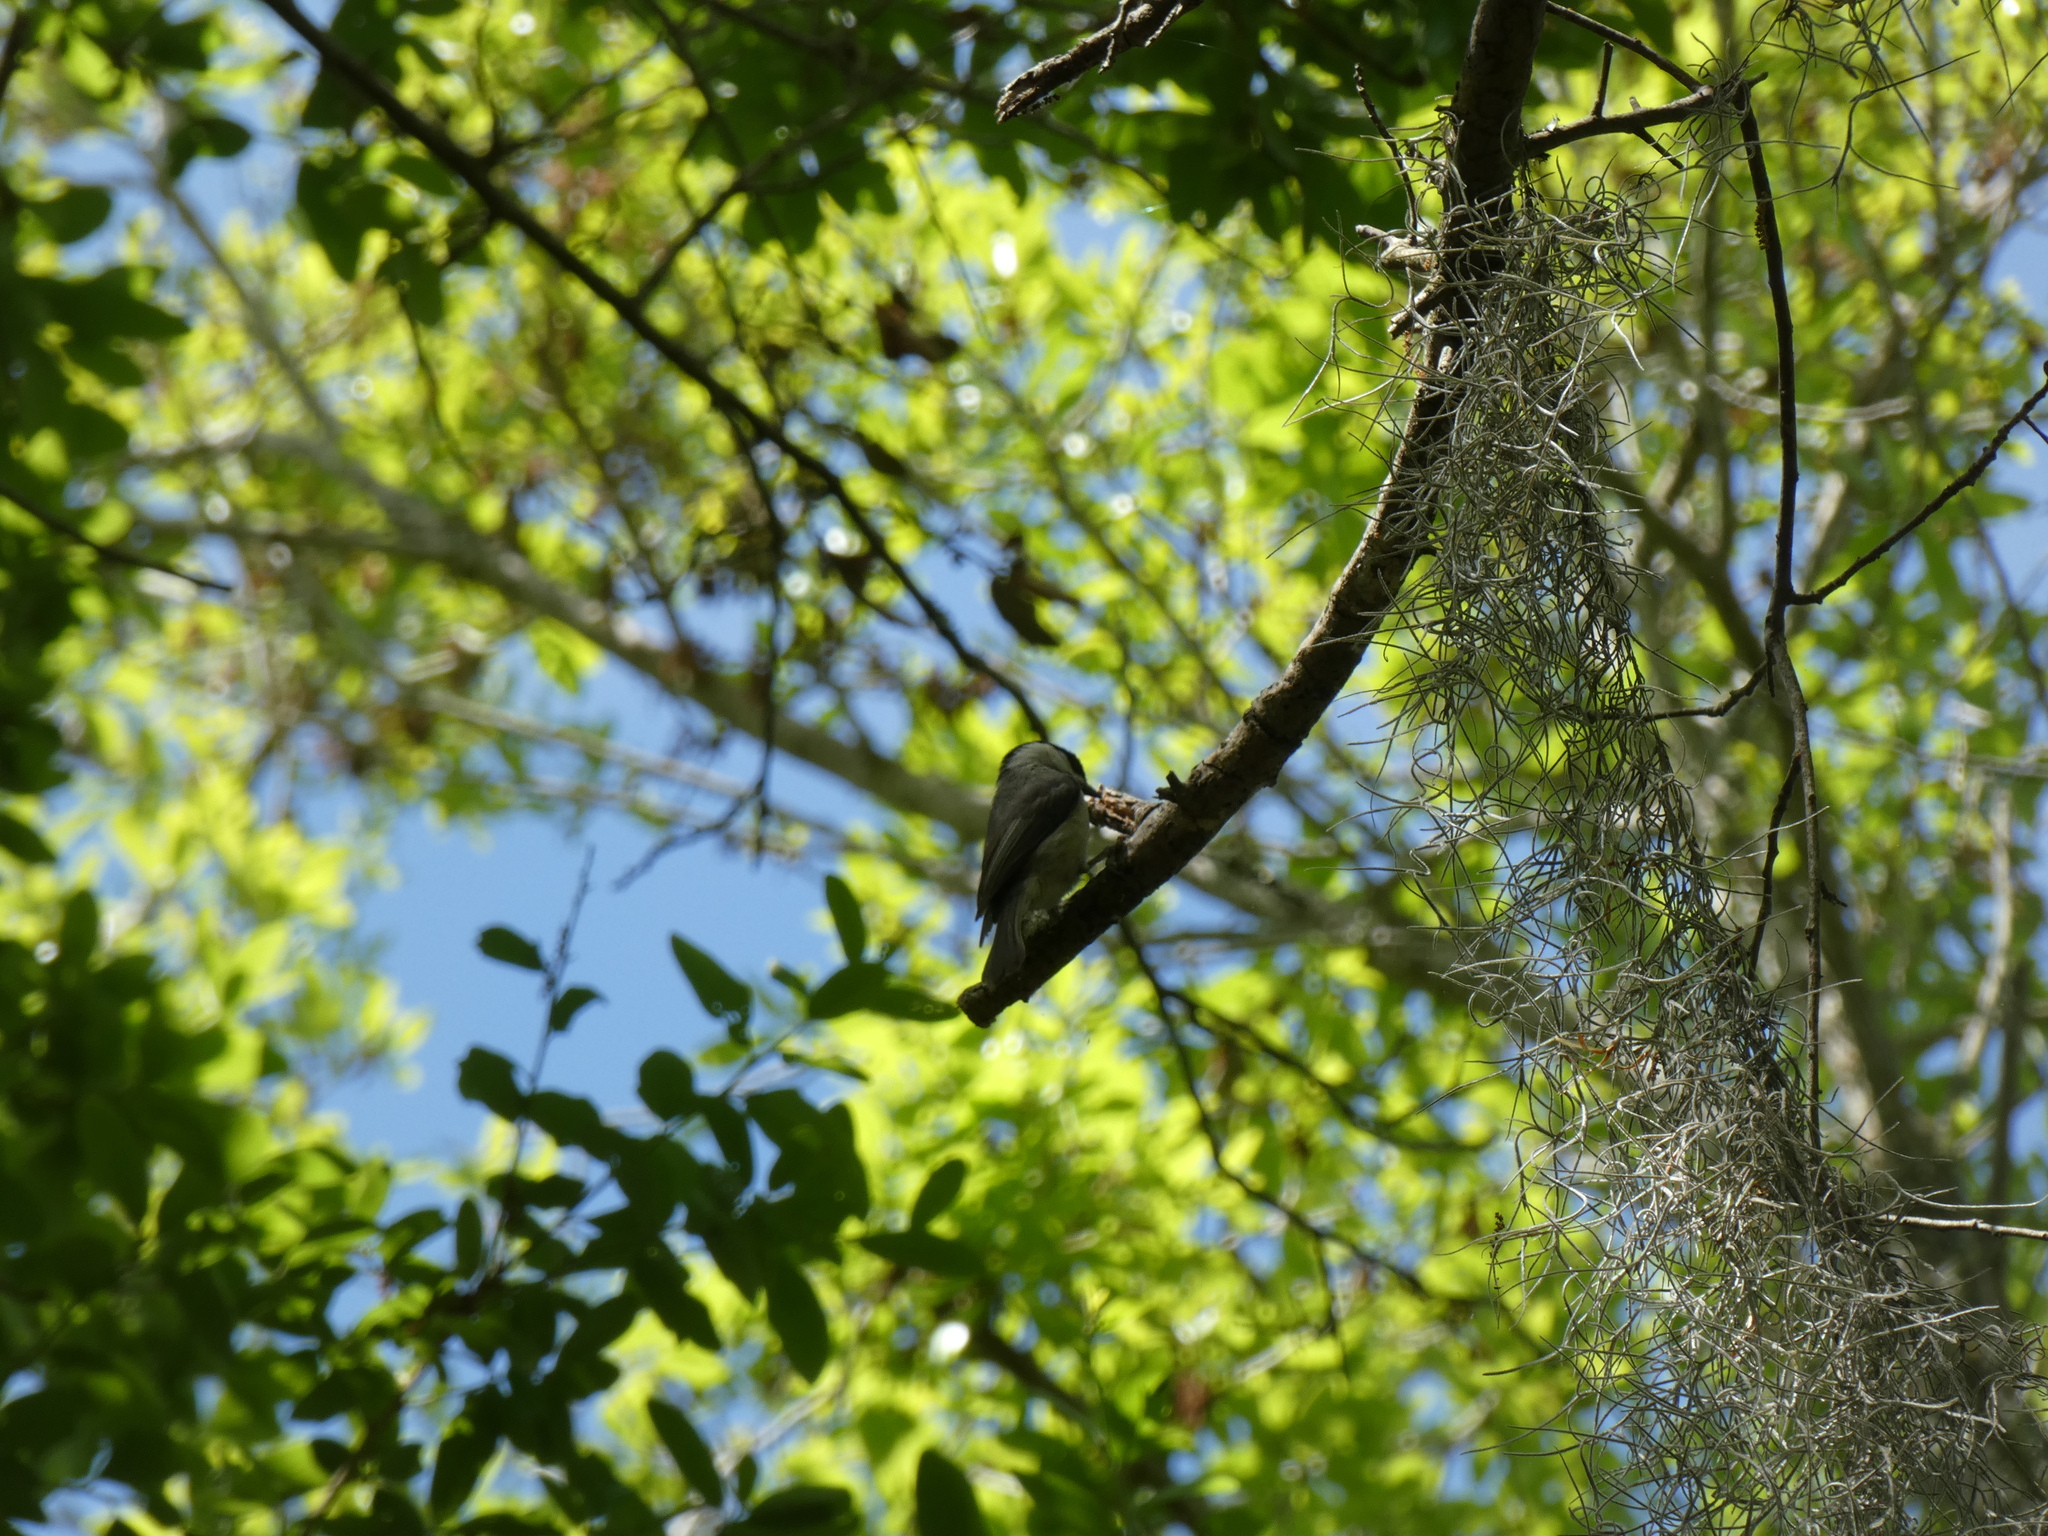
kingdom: Animalia
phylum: Chordata
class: Aves
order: Passeriformes
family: Paridae
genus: Poecile
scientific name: Poecile carolinensis
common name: Carolina chickadee
